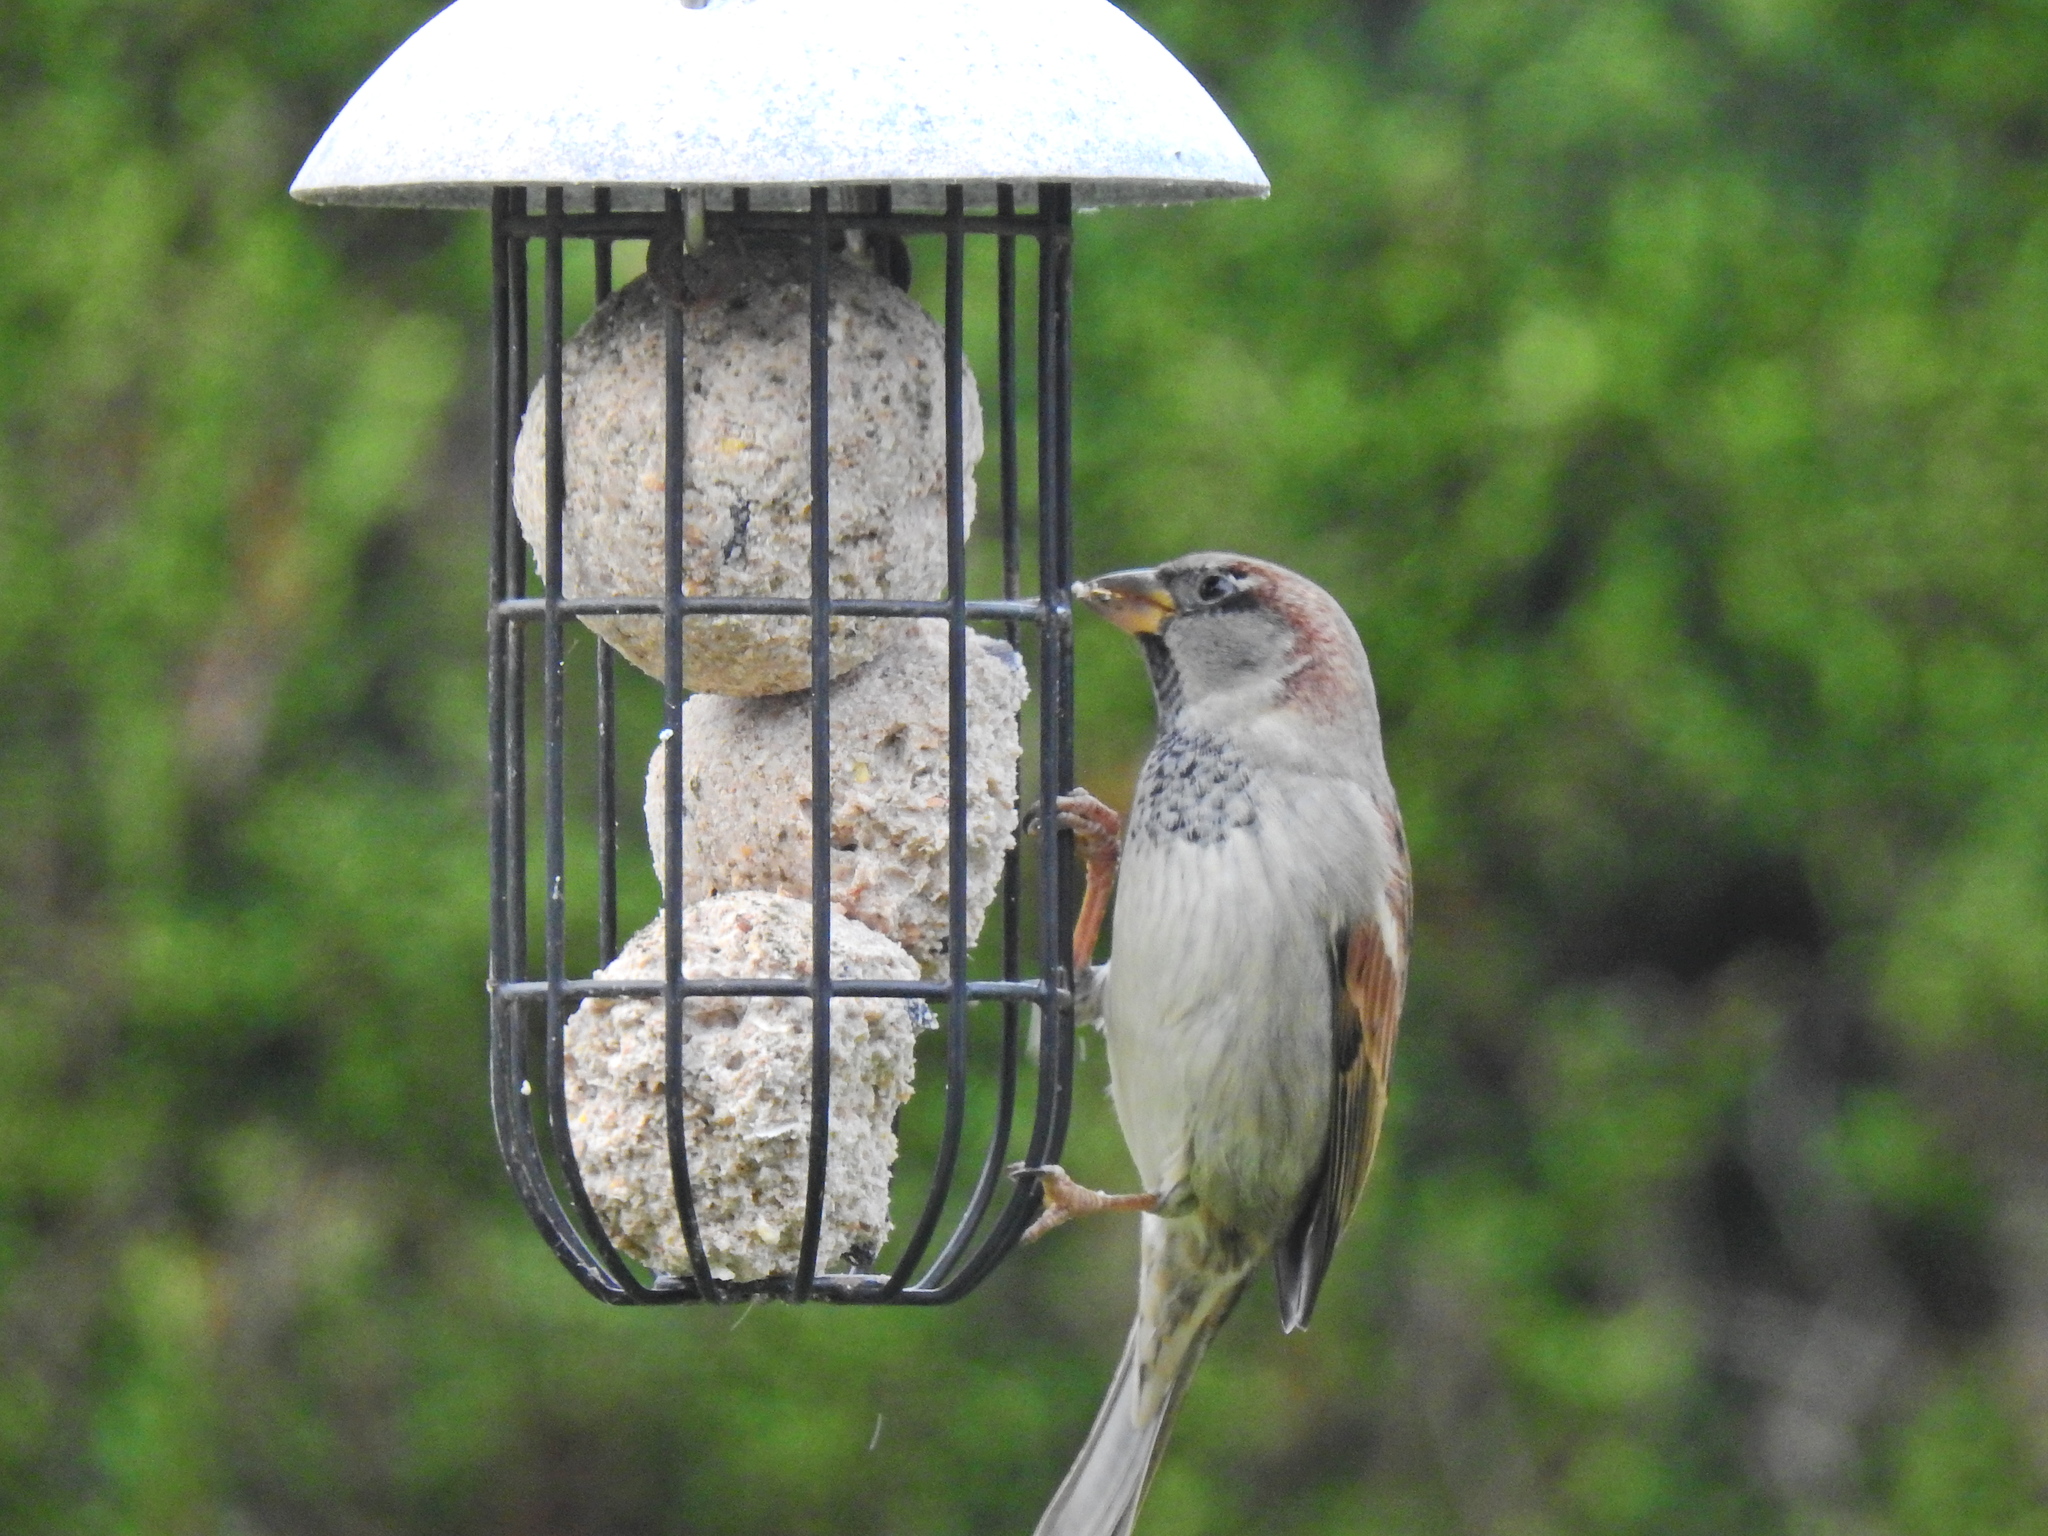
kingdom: Animalia
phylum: Chordata
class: Aves
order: Passeriformes
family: Passeridae
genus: Passer
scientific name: Passer domesticus
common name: House sparrow
